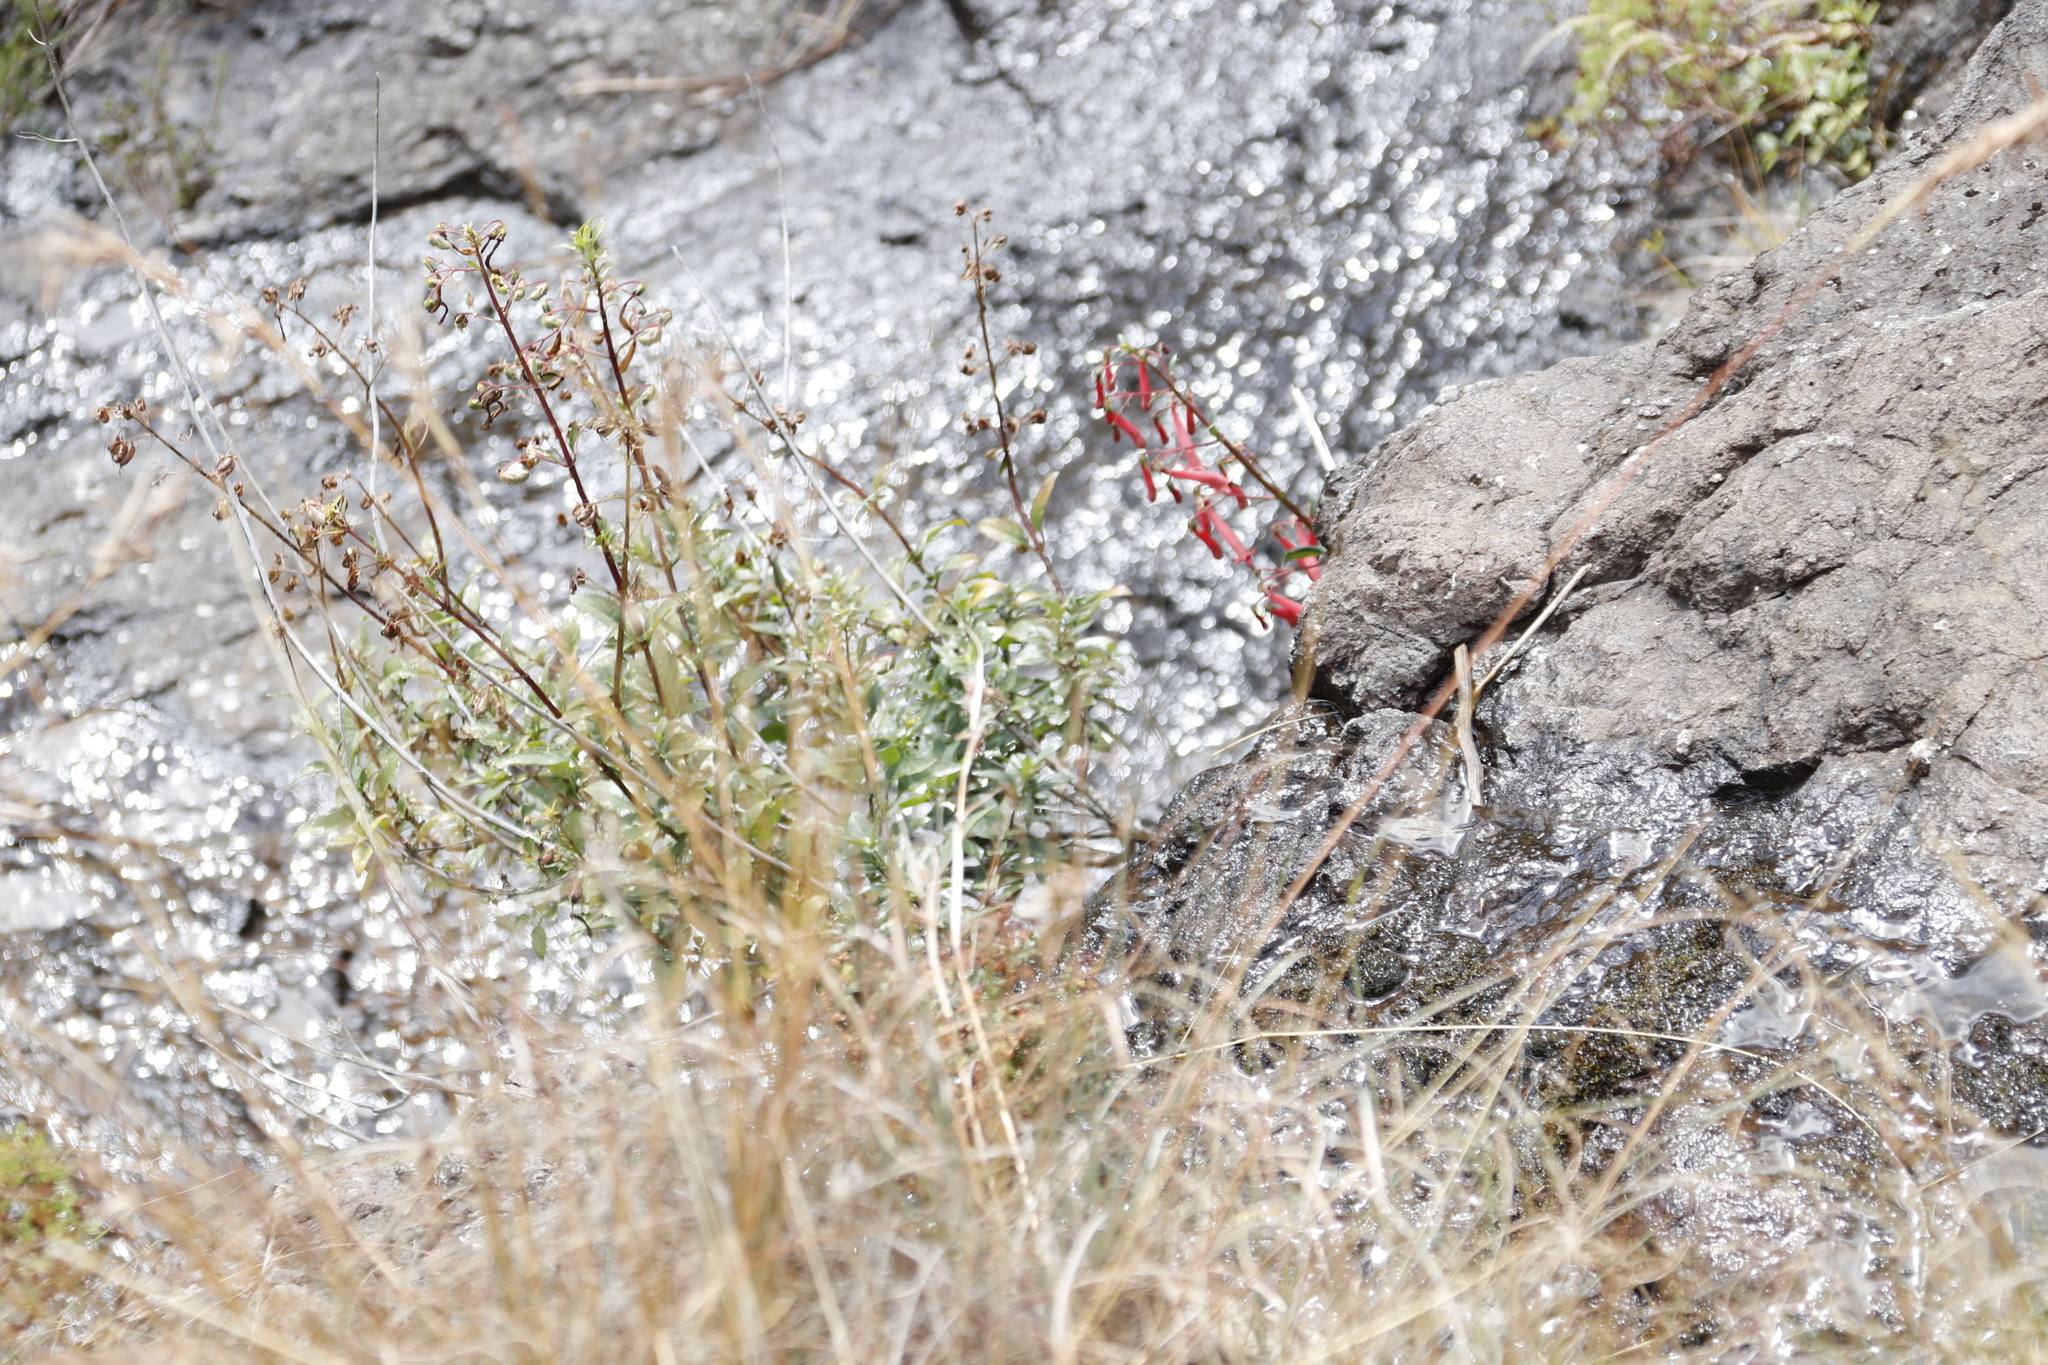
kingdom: Plantae
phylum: Tracheophyta
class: Magnoliopsida
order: Lamiales
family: Scrophulariaceae
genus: Phygelius
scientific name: Phygelius capensis
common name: Cape figwort
